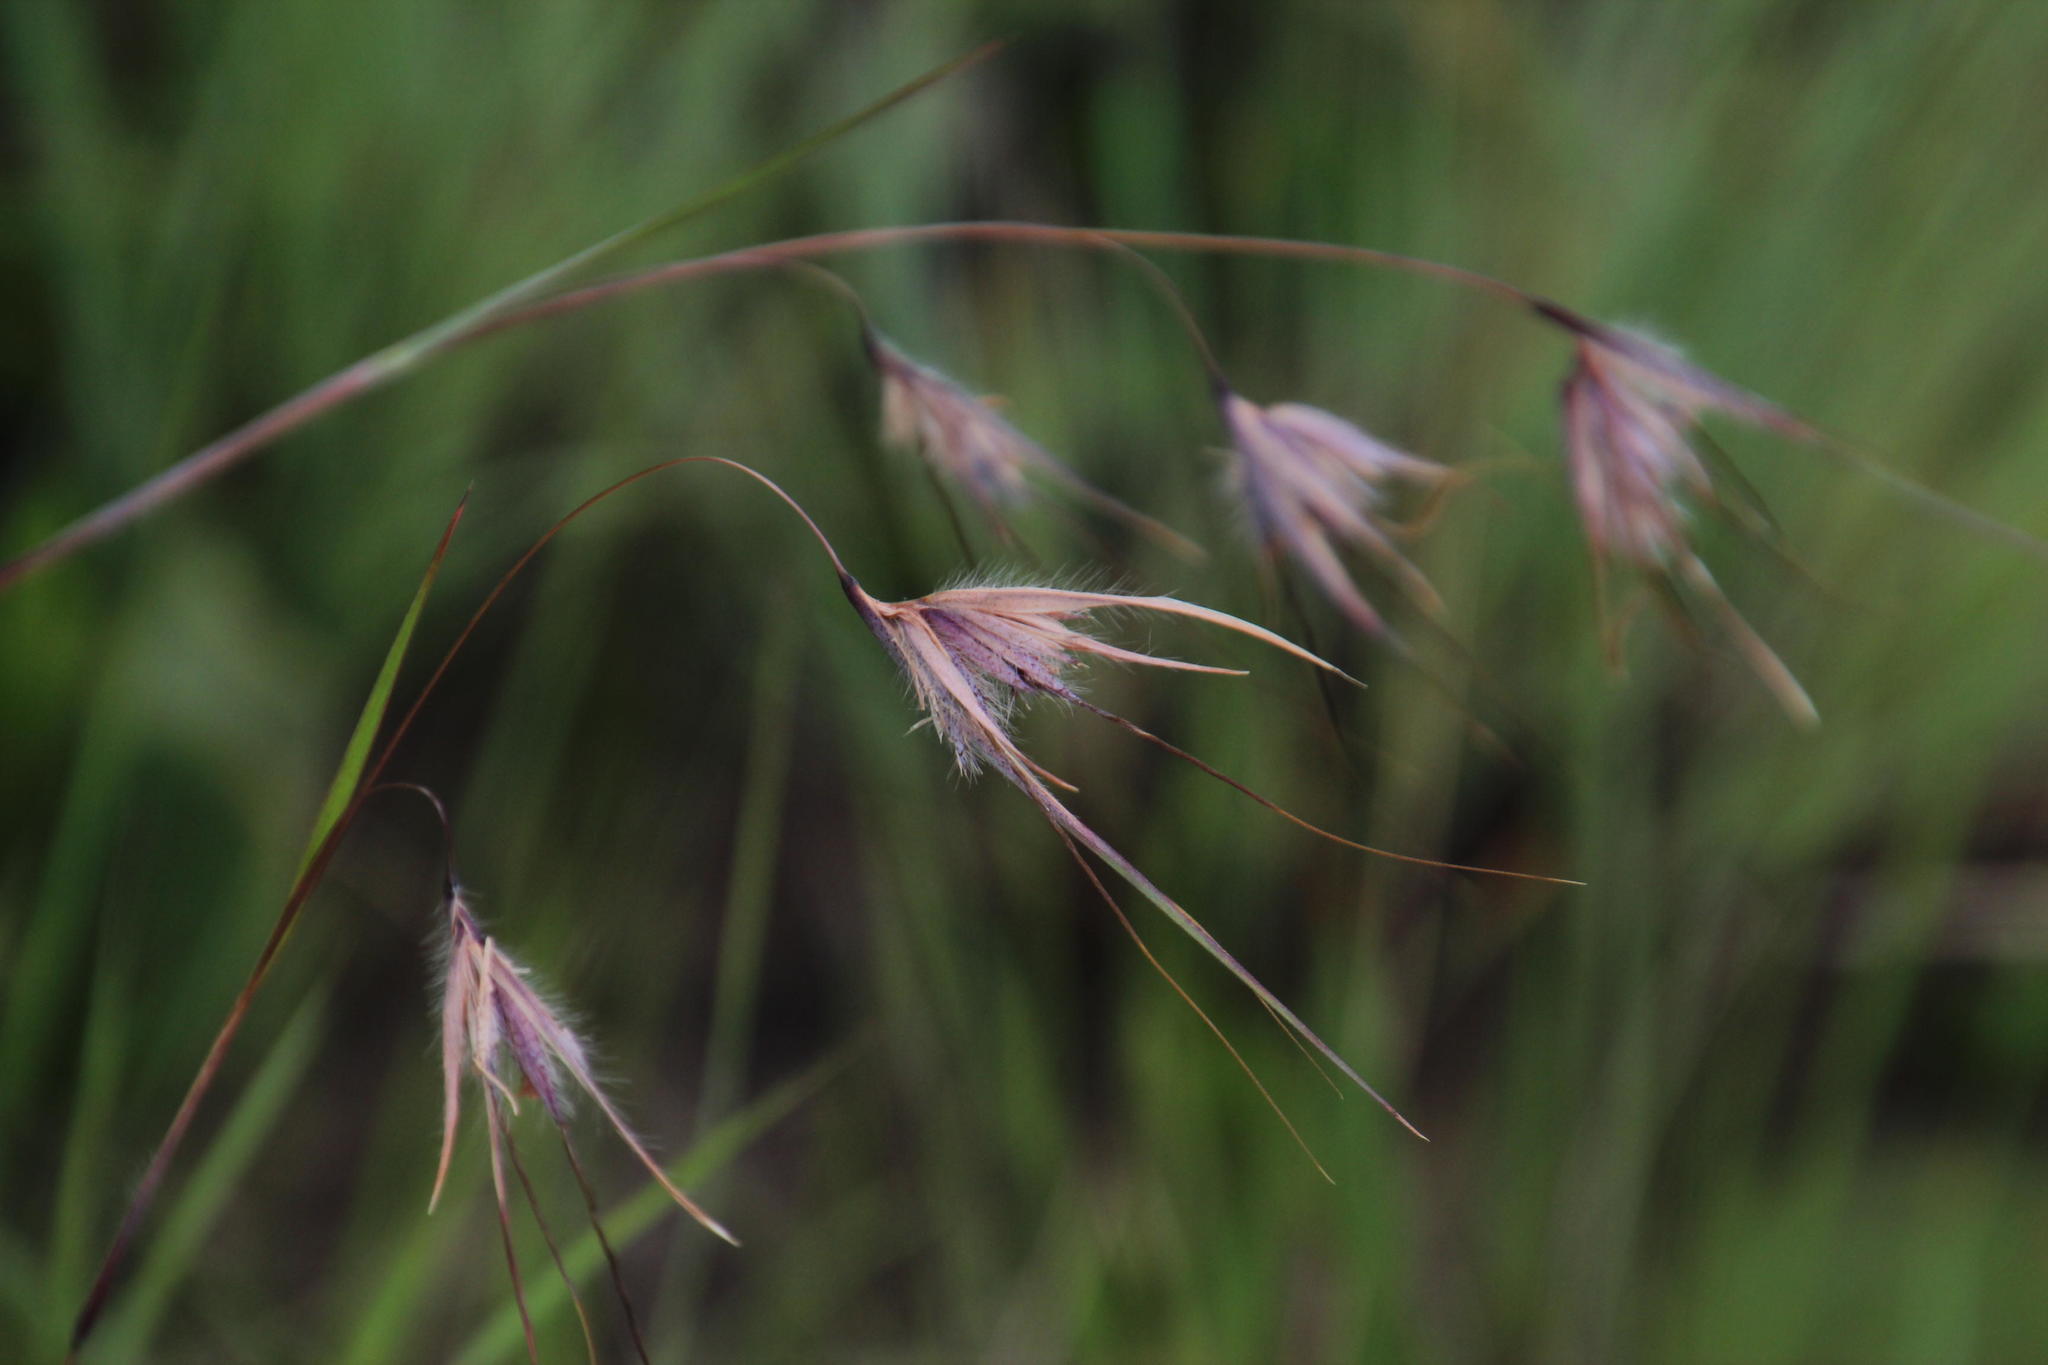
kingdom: Plantae
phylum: Tracheophyta
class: Liliopsida
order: Poales
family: Poaceae
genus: Themeda
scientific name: Themeda triandra
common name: Kangaroo grass
